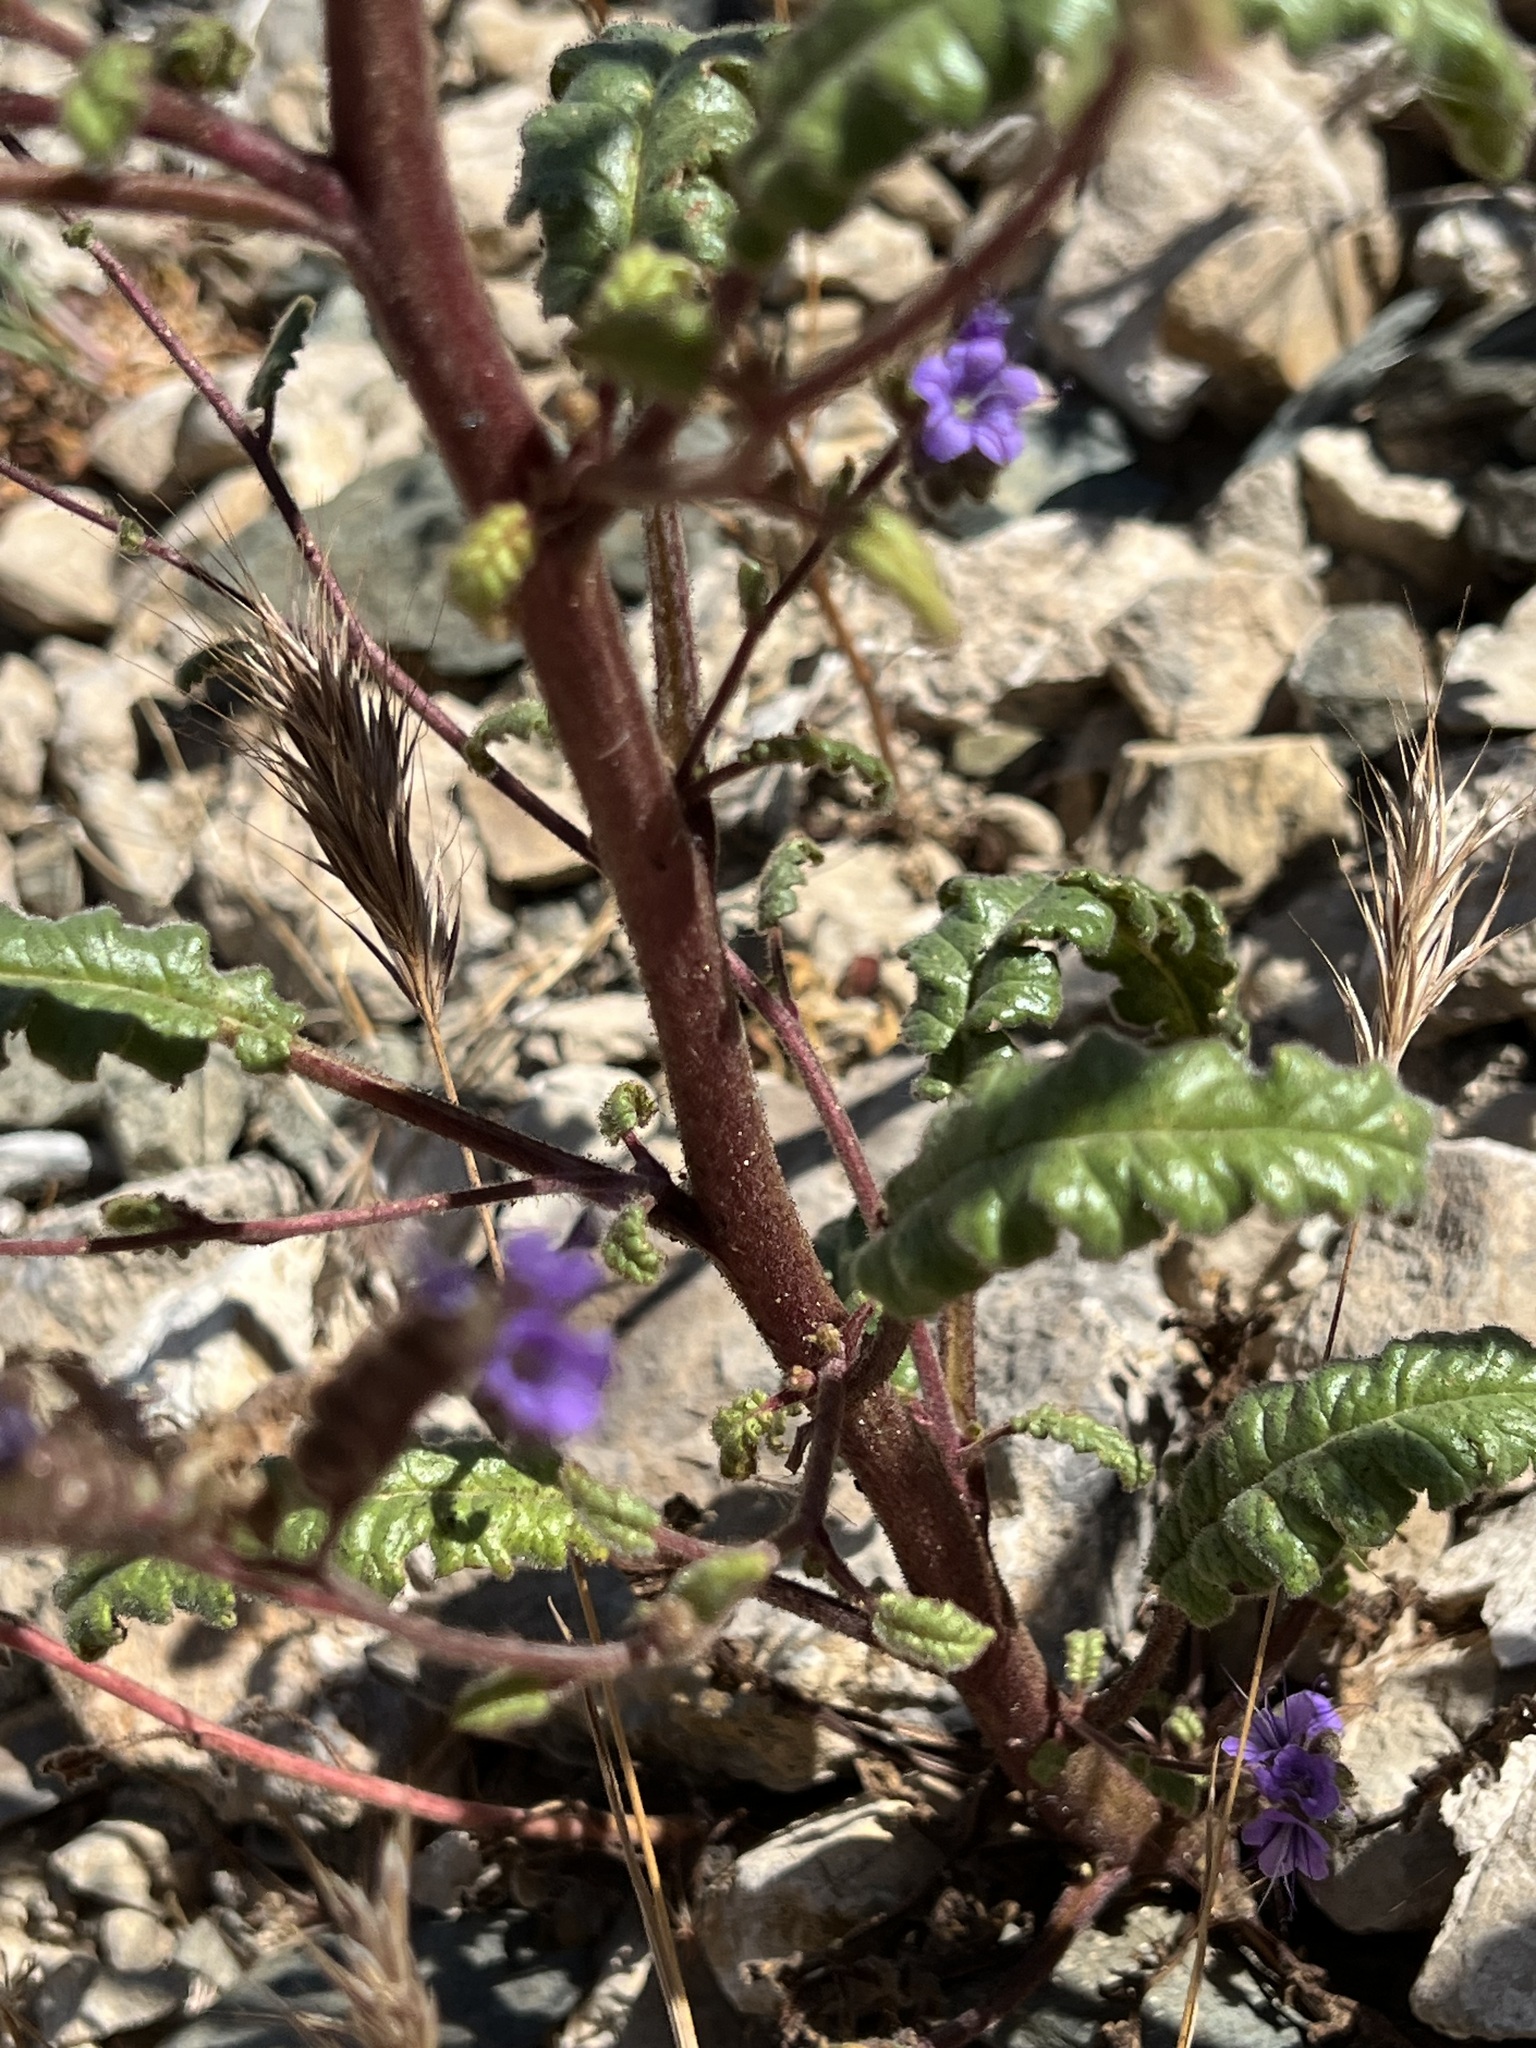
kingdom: Plantae
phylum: Tracheophyta
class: Magnoliopsida
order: Boraginales
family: Hydrophyllaceae
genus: Phacelia
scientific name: Phacelia crenulata
